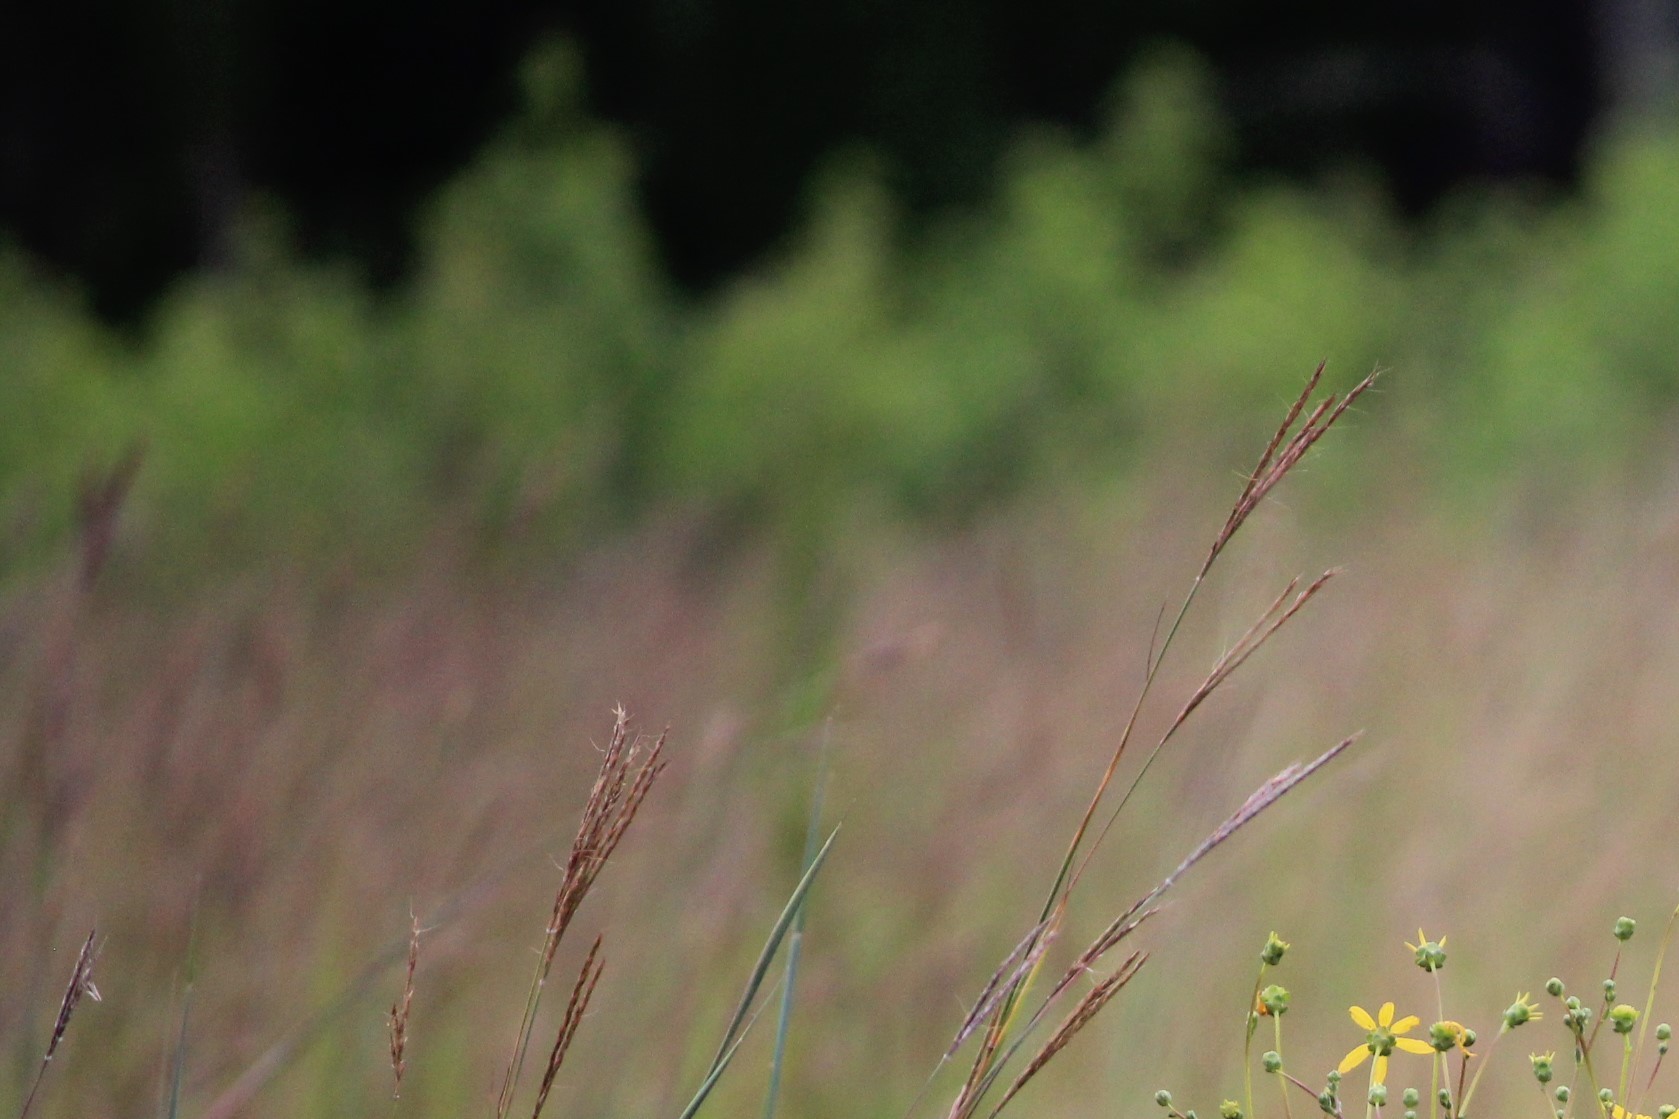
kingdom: Plantae
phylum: Tracheophyta
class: Liliopsida
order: Poales
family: Poaceae
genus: Andropogon
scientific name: Andropogon gerardi
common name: Big bluestem
